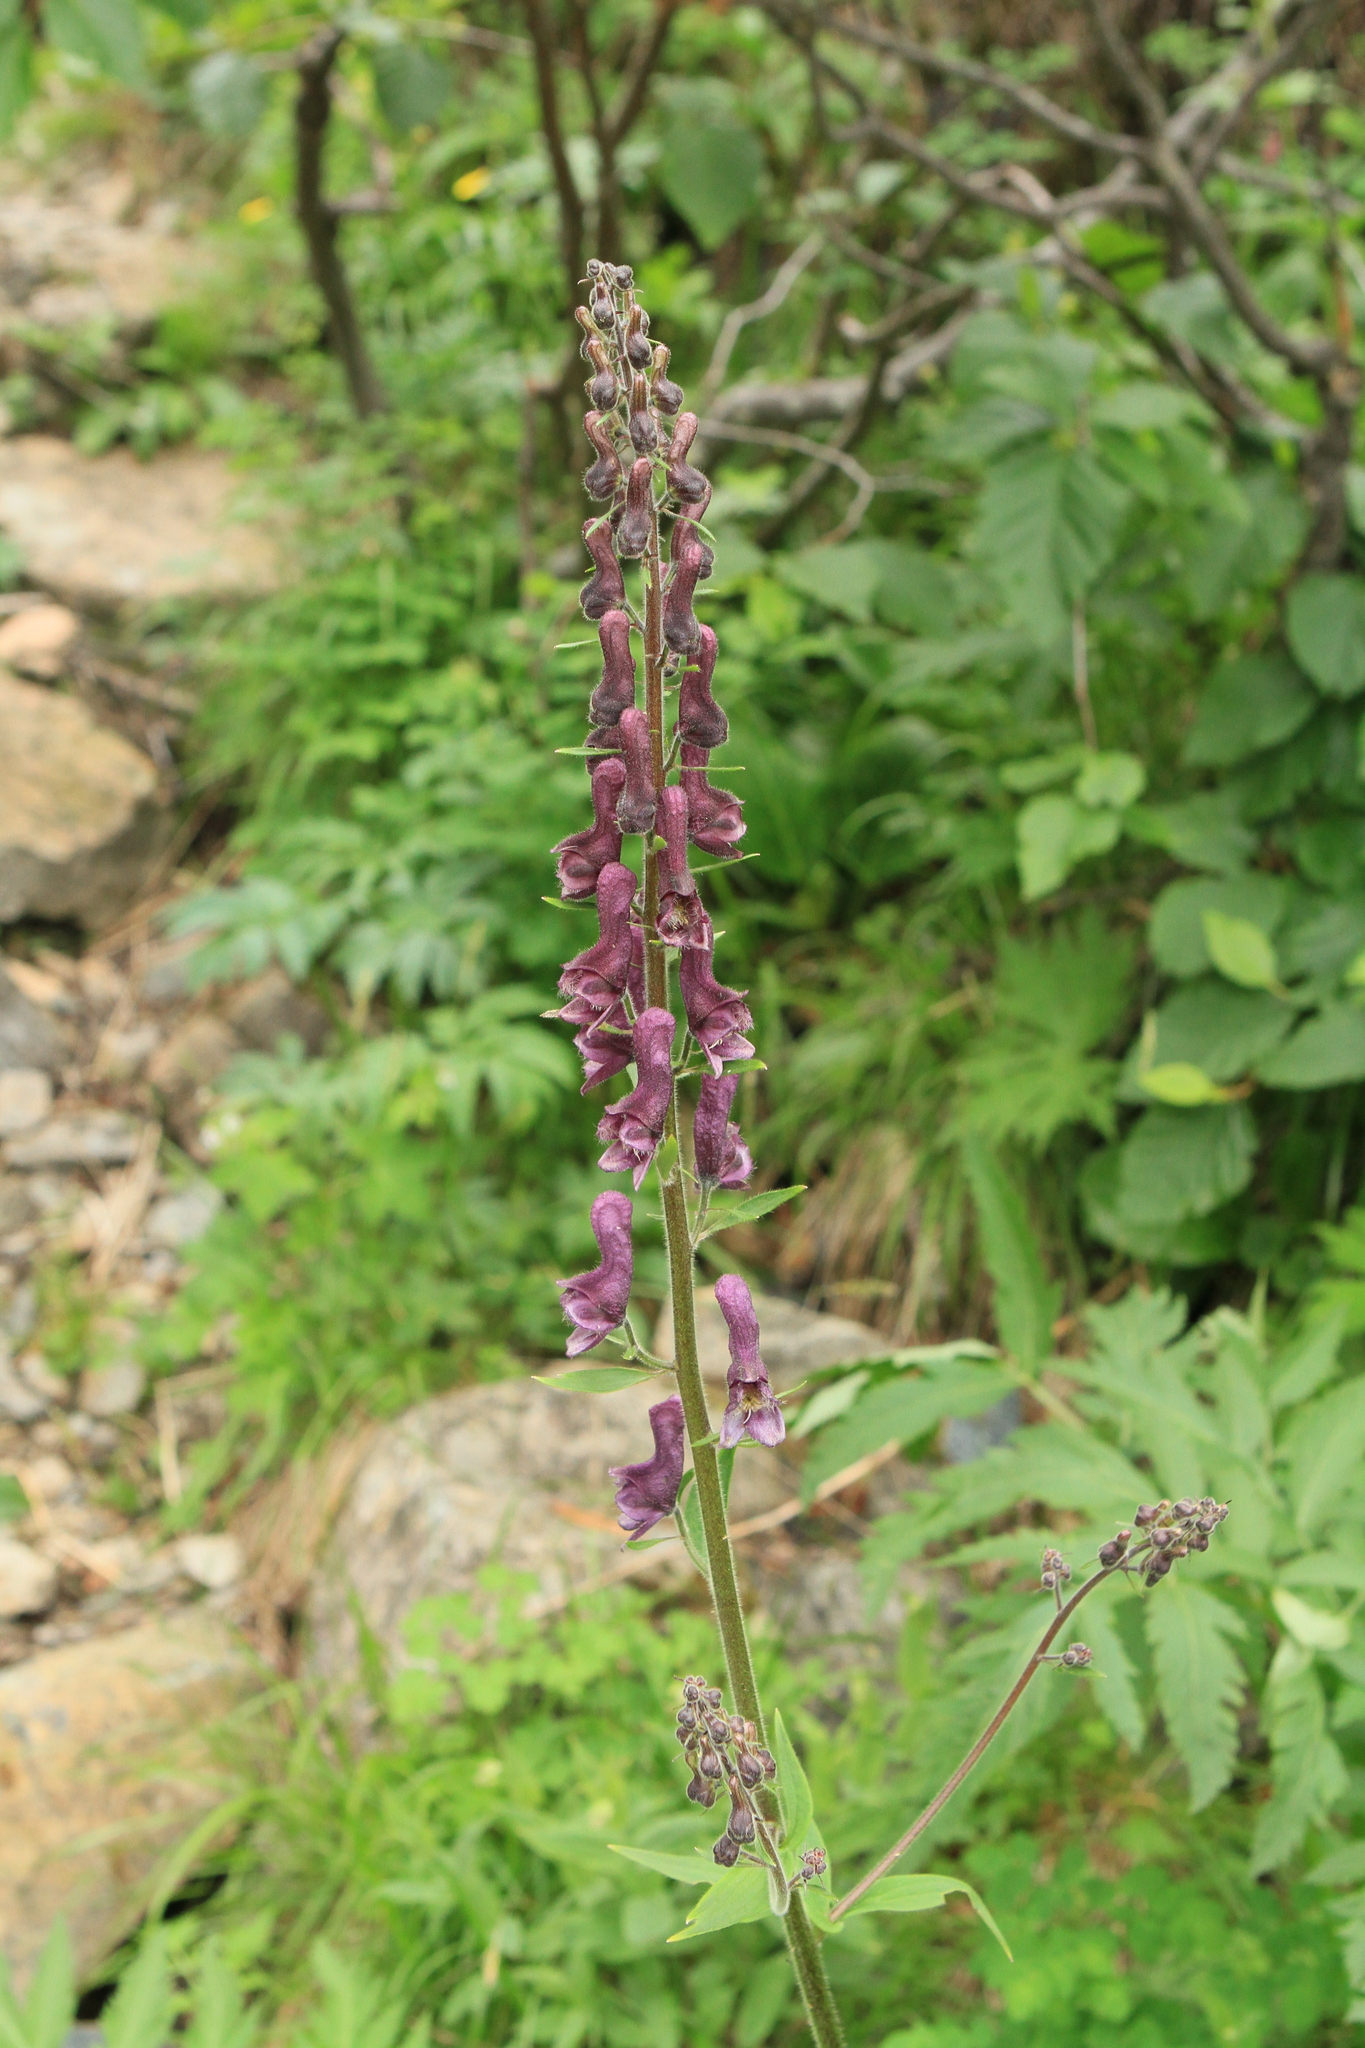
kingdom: Plantae
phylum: Tracheophyta
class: Magnoliopsida
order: Ranunculales
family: Ranunculaceae
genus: Aconitum
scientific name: Aconitum septentrionale
